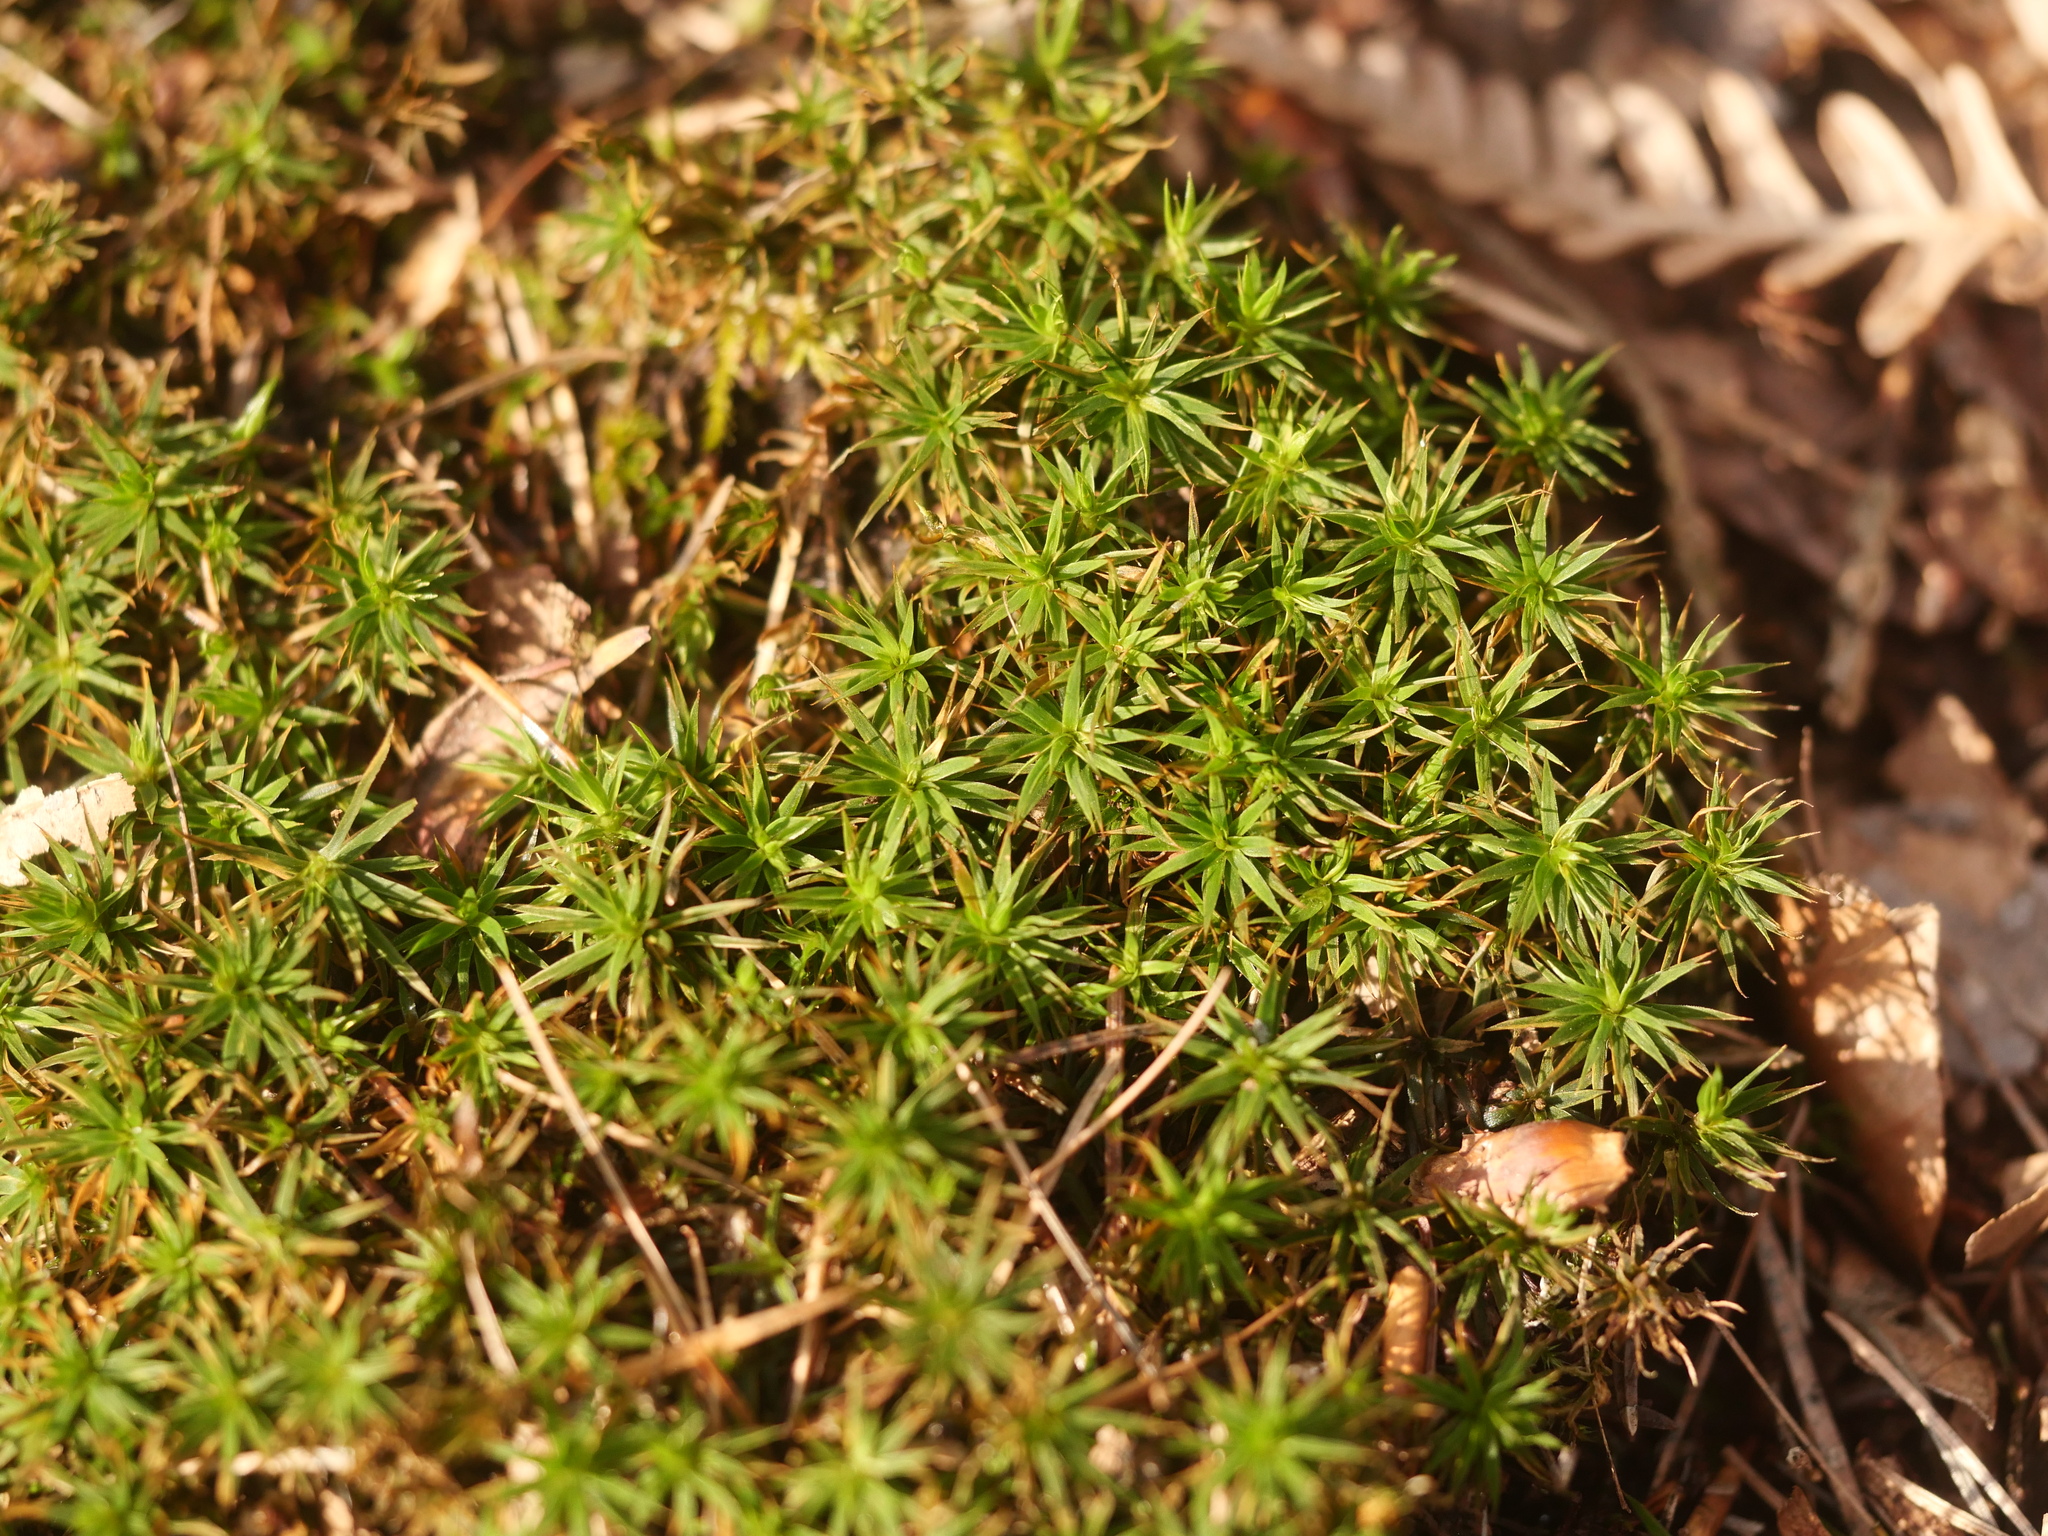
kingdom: Plantae
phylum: Bryophyta
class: Polytrichopsida
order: Polytrichales
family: Polytrichaceae
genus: Polytrichum
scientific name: Polytrichum formosum
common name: Bank haircap moss
